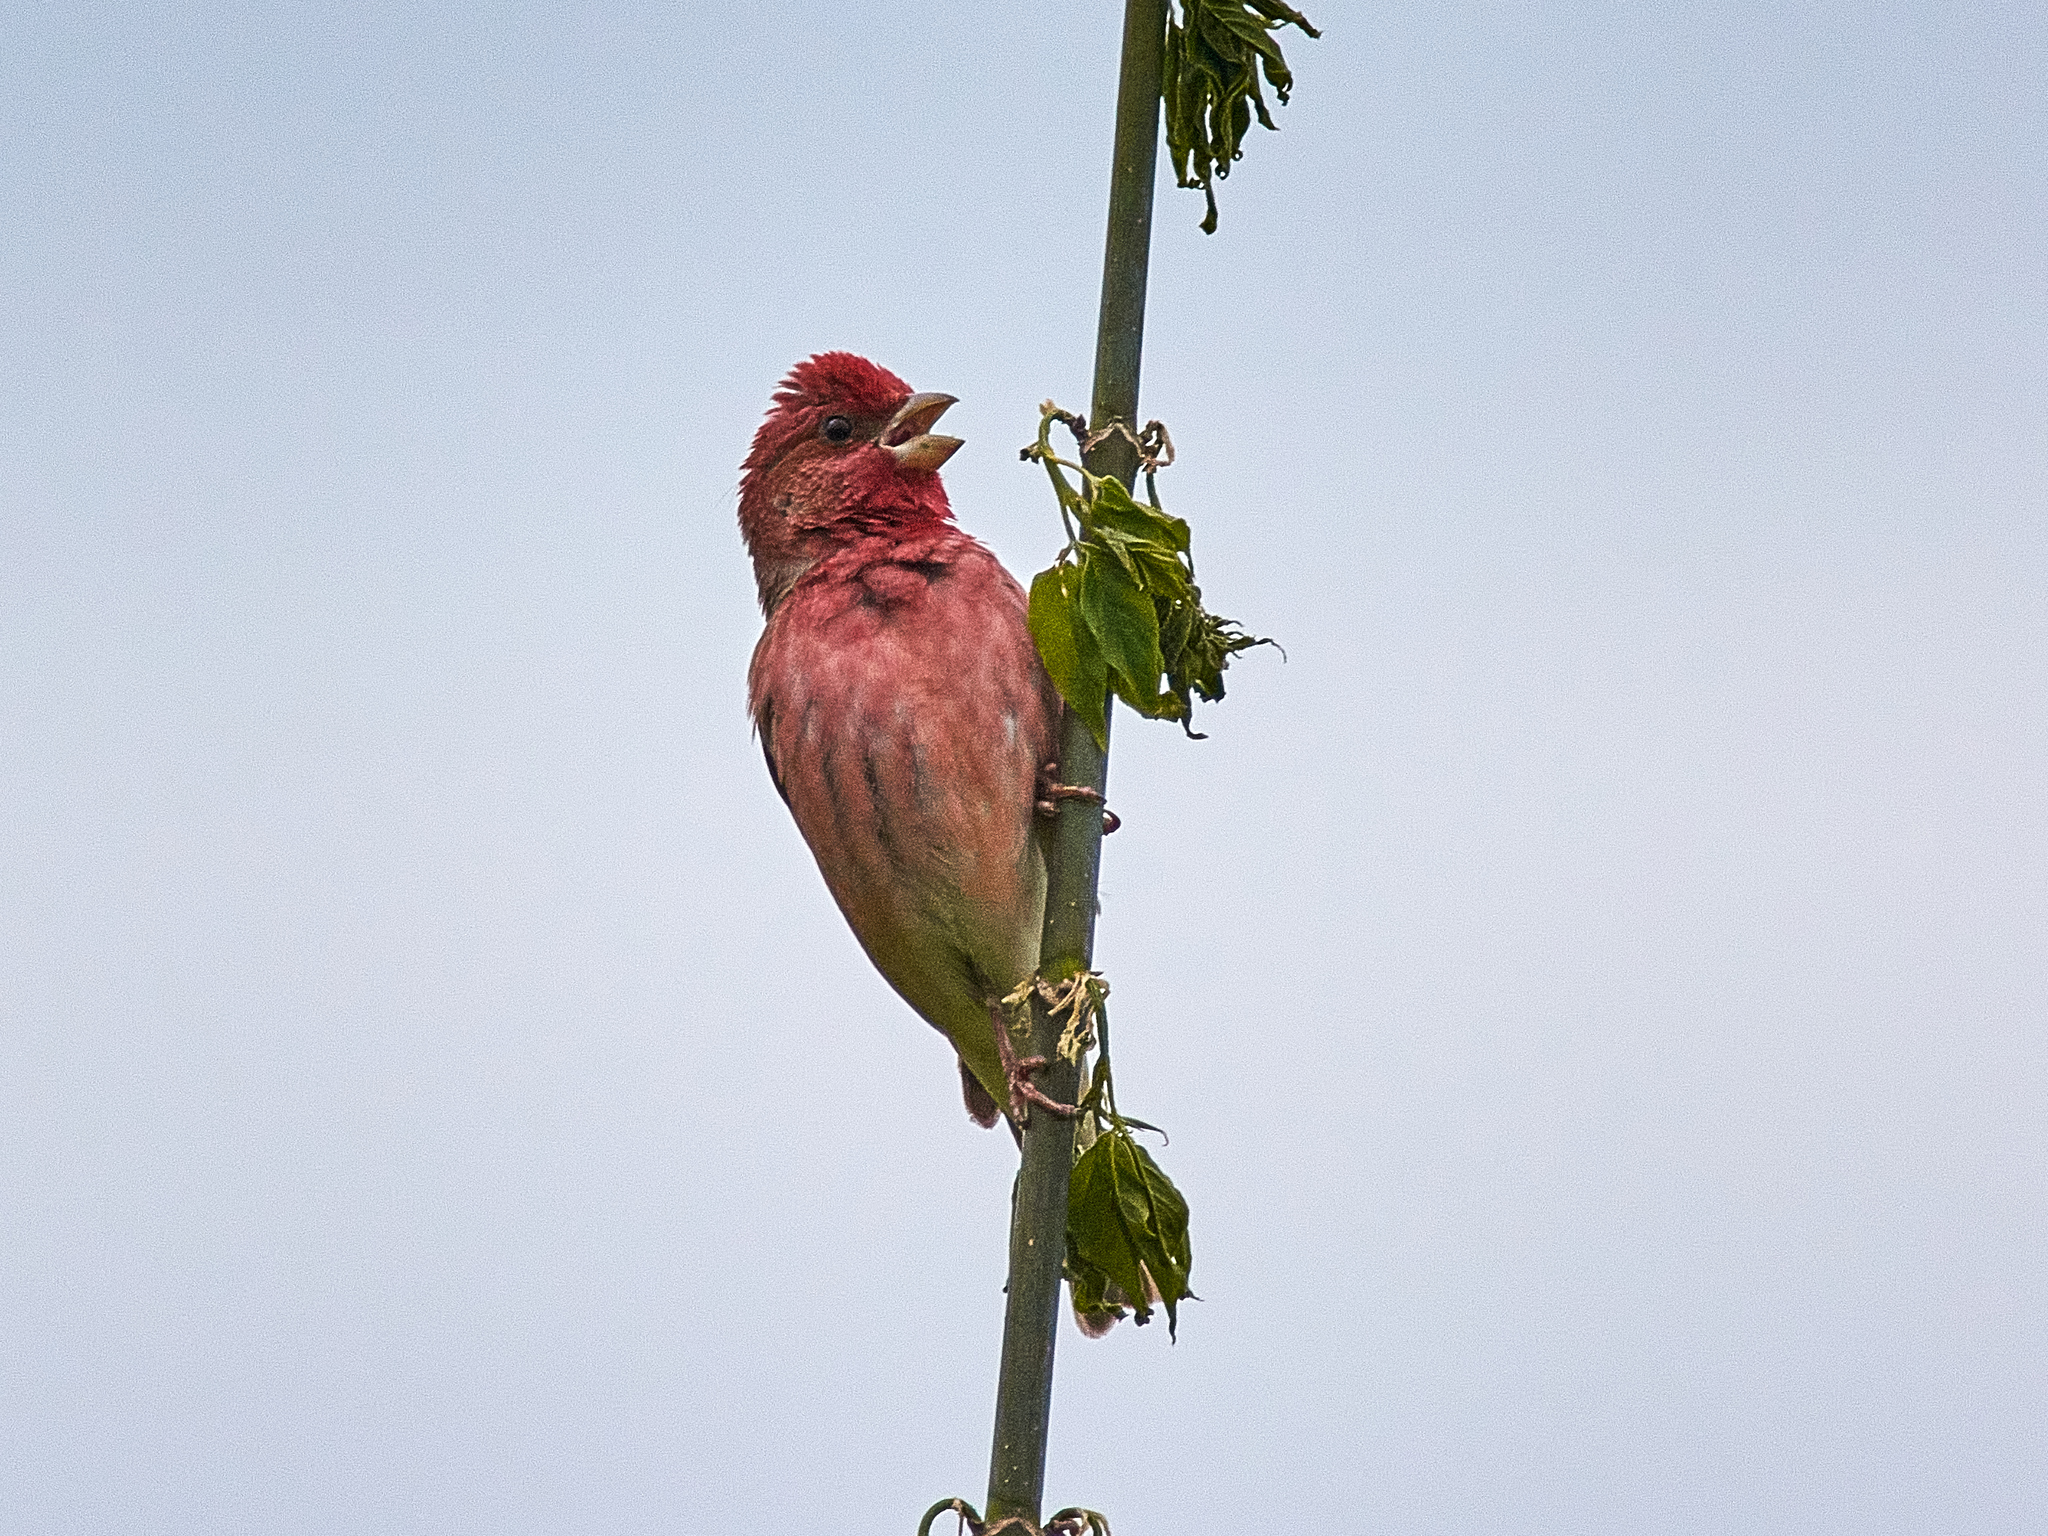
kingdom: Animalia
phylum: Chordata
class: Aves
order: Passeriformes
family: Fringillidae
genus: Carpodacus
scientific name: Carpodacus erythrinus
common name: Common rosefinch
